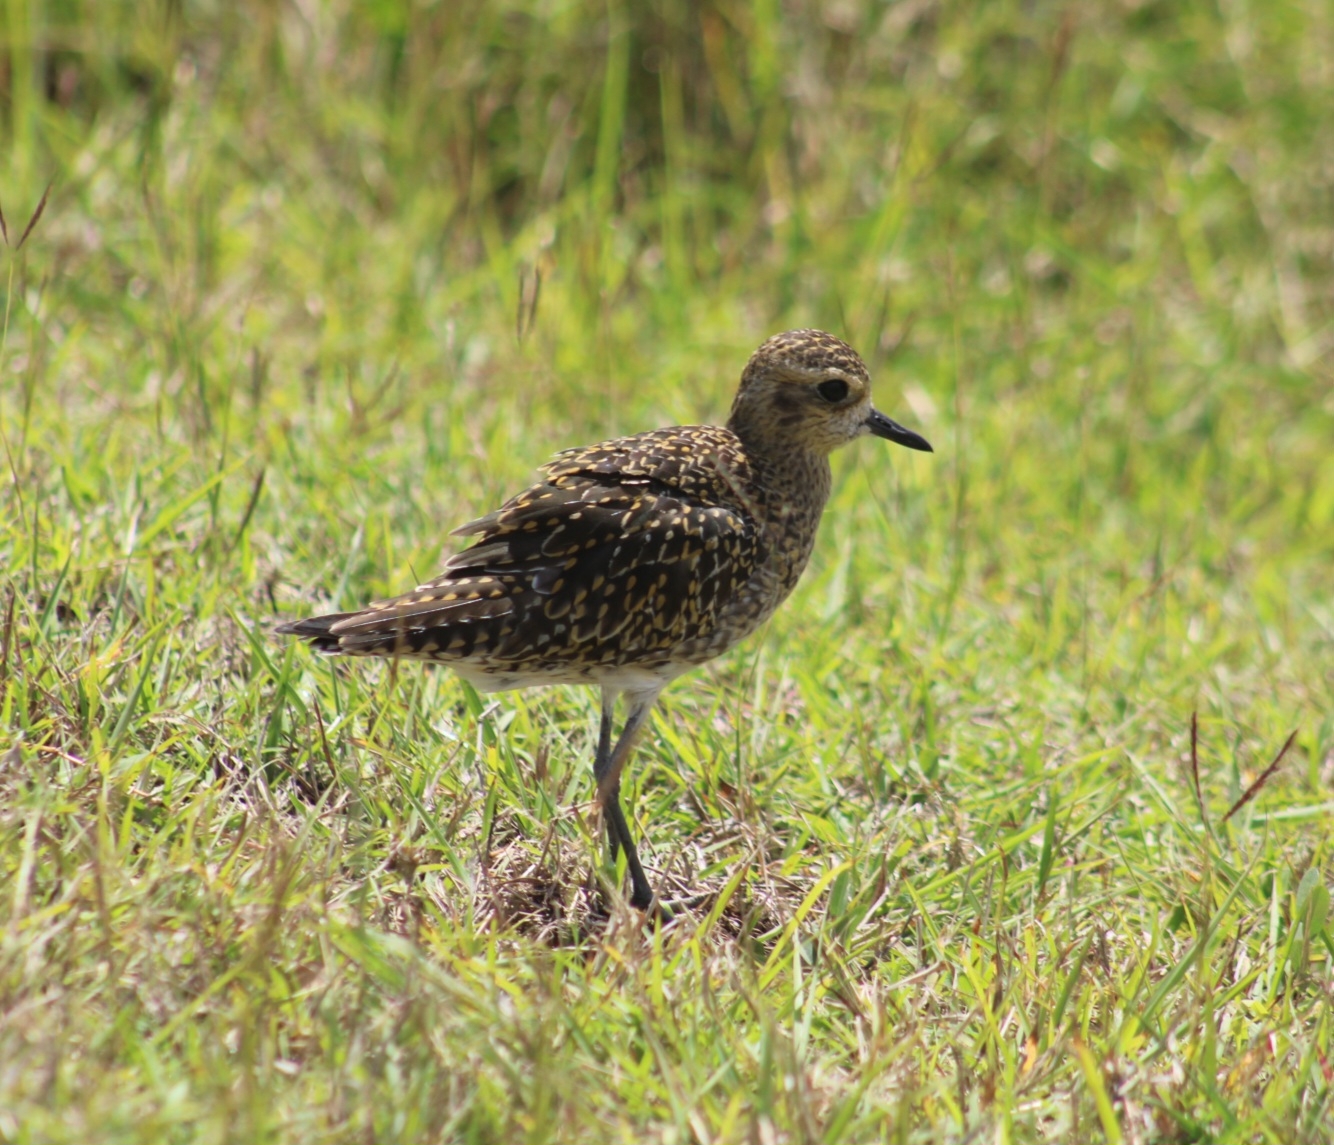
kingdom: Animalia
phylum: Chordata
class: Aves
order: Charadriiformes
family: Charadriidae
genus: Pluvialis
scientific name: Pluvialis fulva
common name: Pacific golden plover
